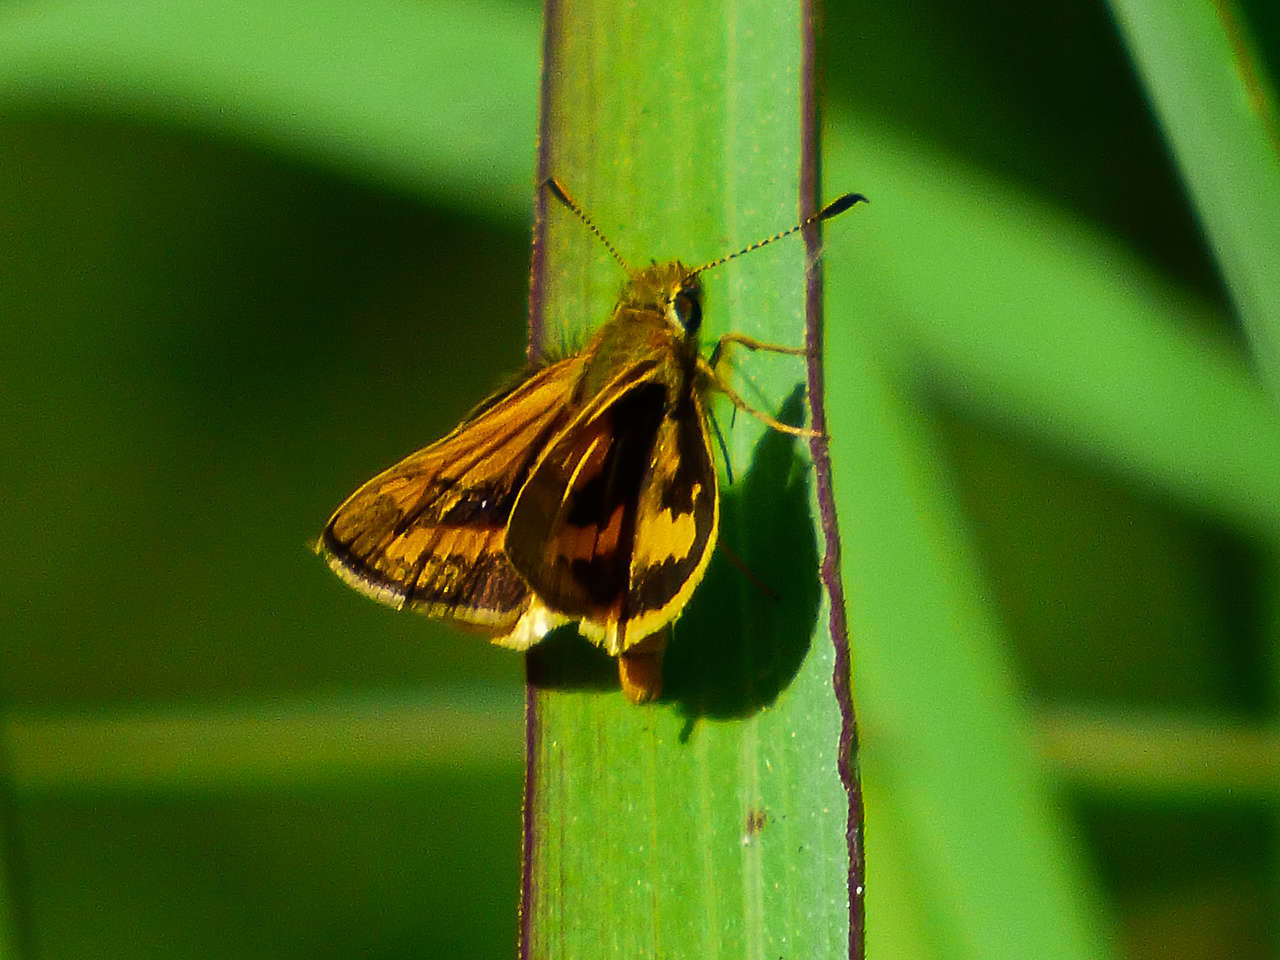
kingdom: Animalia
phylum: Arthropoda
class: Insecta
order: Lepidoptera
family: Hesperiidae
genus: Ocybadistes
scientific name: Ocybadistes walkeri
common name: Yellow-banded dart
